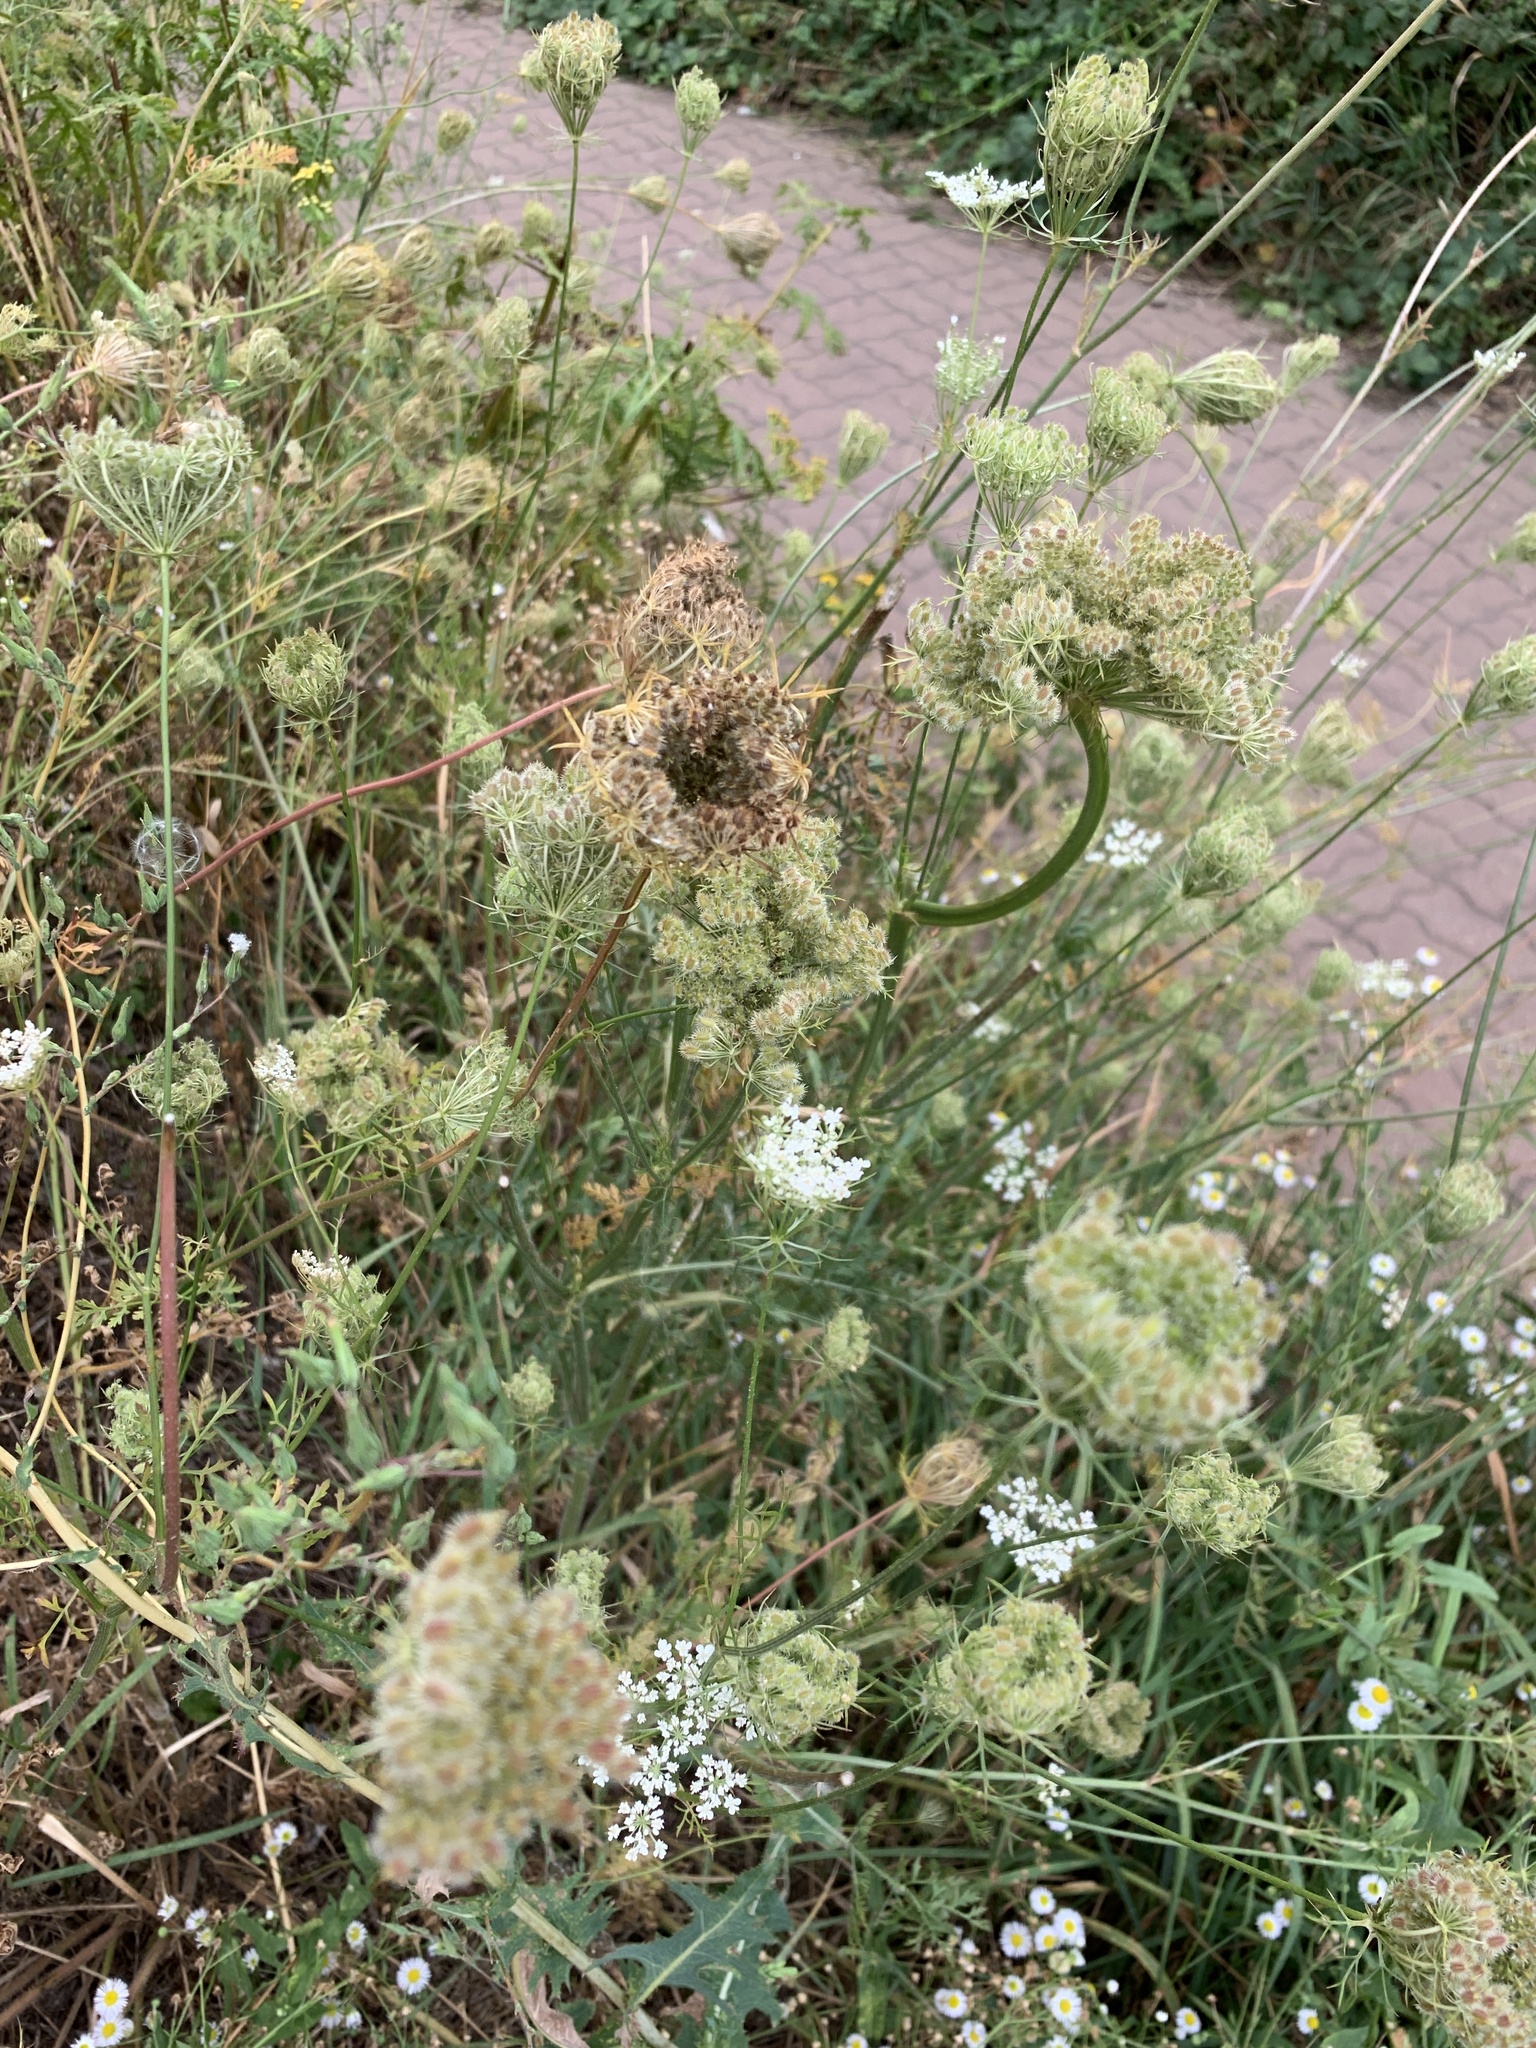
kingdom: Plantae
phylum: Tracheophyta
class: Magnoliopsida
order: Apiales
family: Apiaceae
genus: Daucus
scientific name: Daucus carota
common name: Wild carrot
